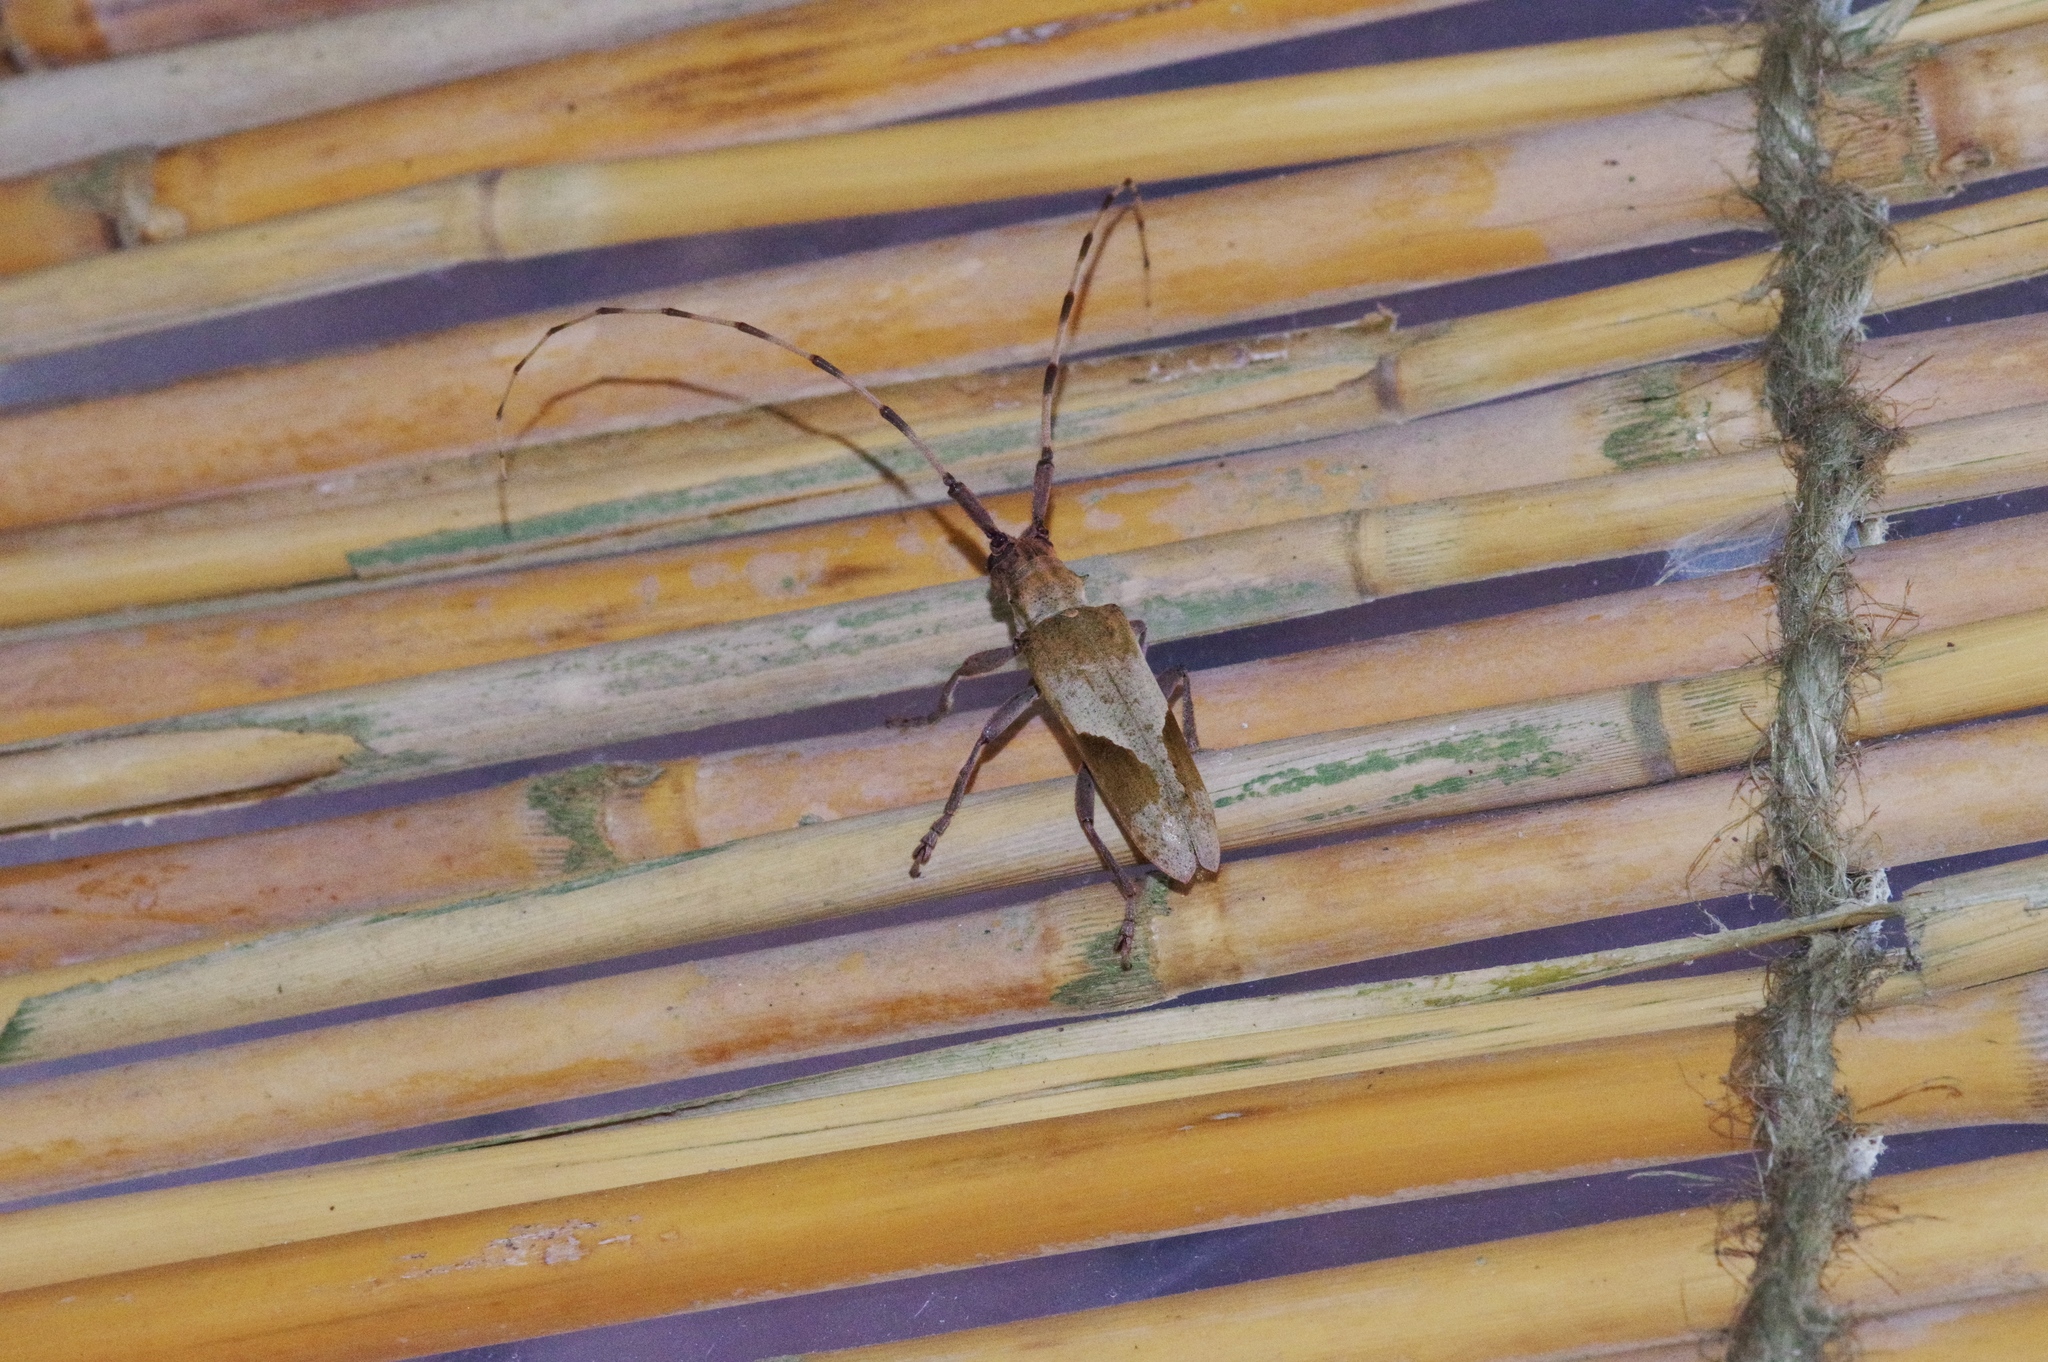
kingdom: Animalia
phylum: Arthropoda
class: Insecta
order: Coleoptera
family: Cerambycidae
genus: Uraecha
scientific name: Uraecha oshimana
